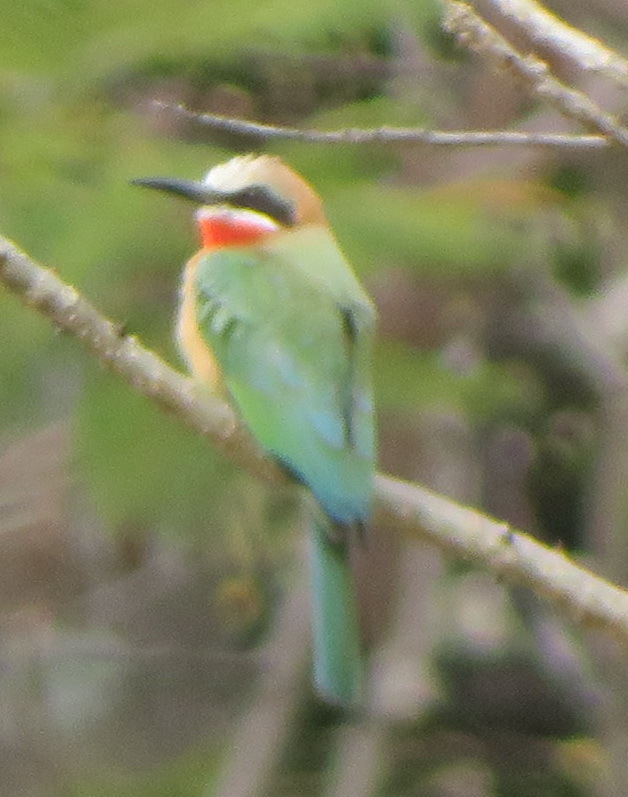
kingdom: Animalia
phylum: Chordata
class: Aves
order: Coraciiformes
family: Meropidae
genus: Merops
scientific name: Merops bullockoides
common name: White-fronted bee-eater
